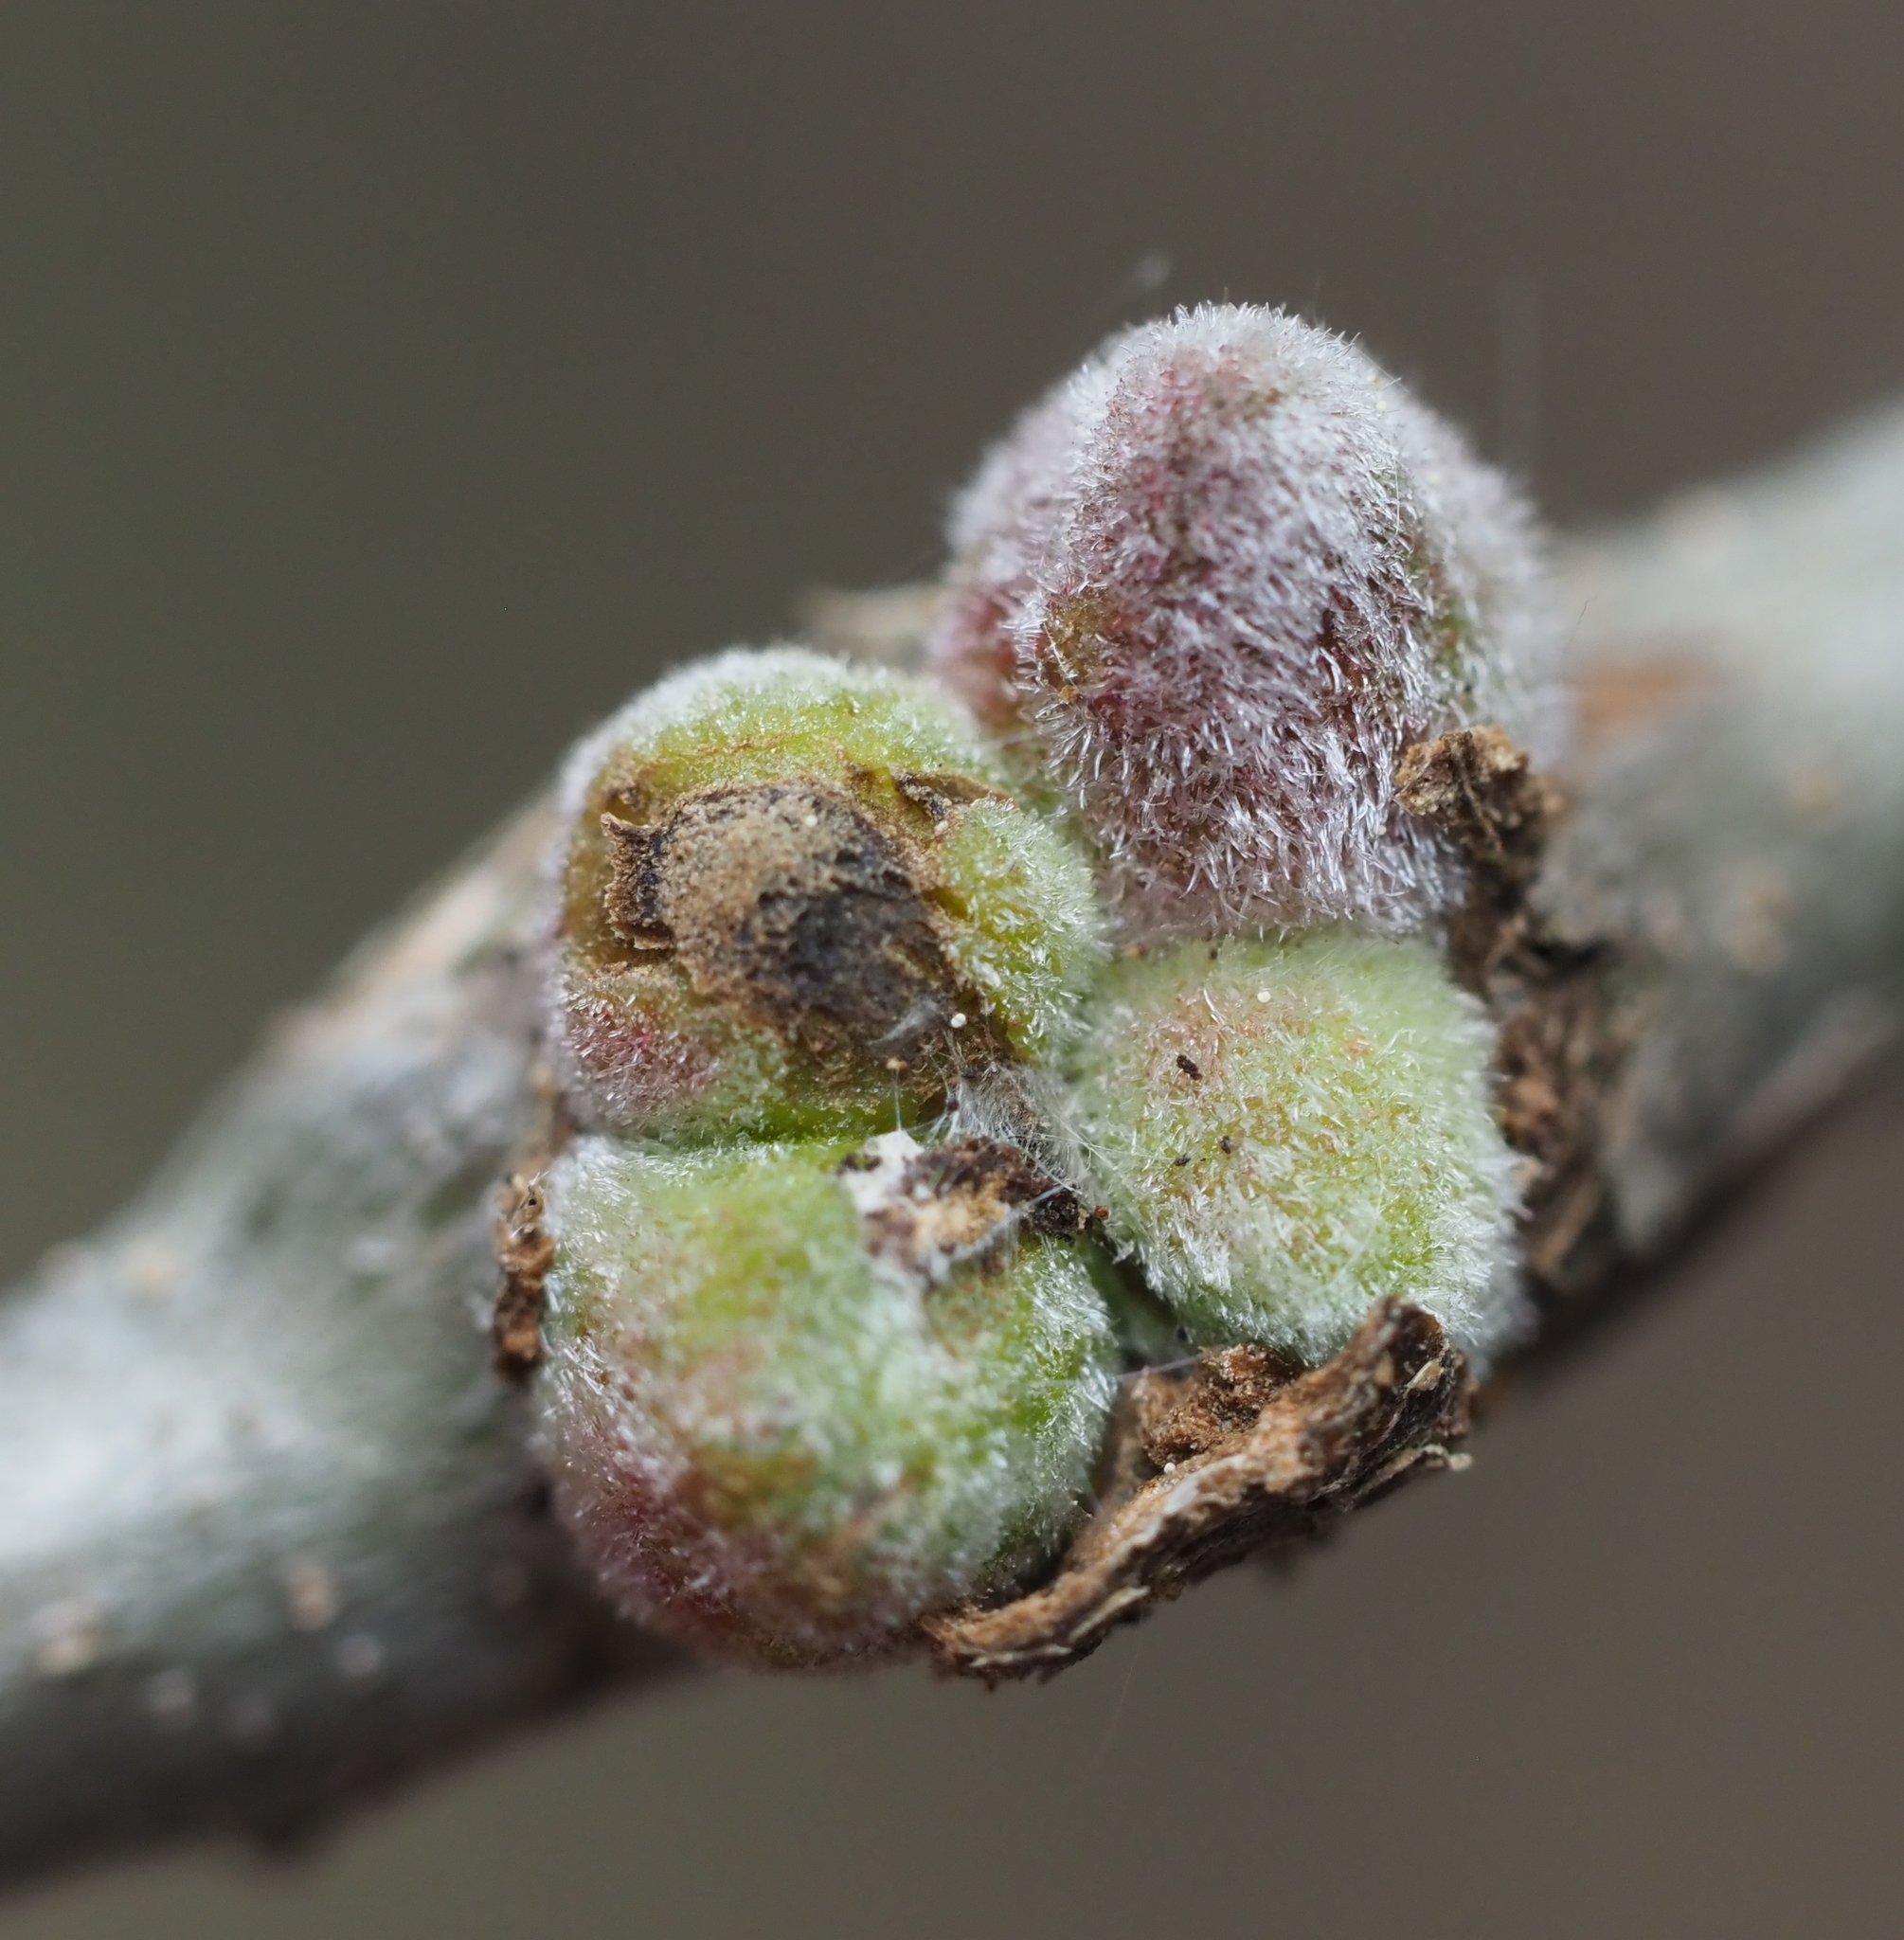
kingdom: Animalia
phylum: Arthropoda
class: Insecta
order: Hymenoptera
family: Cynipidae
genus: Callirhytis
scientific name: Callirhytis
